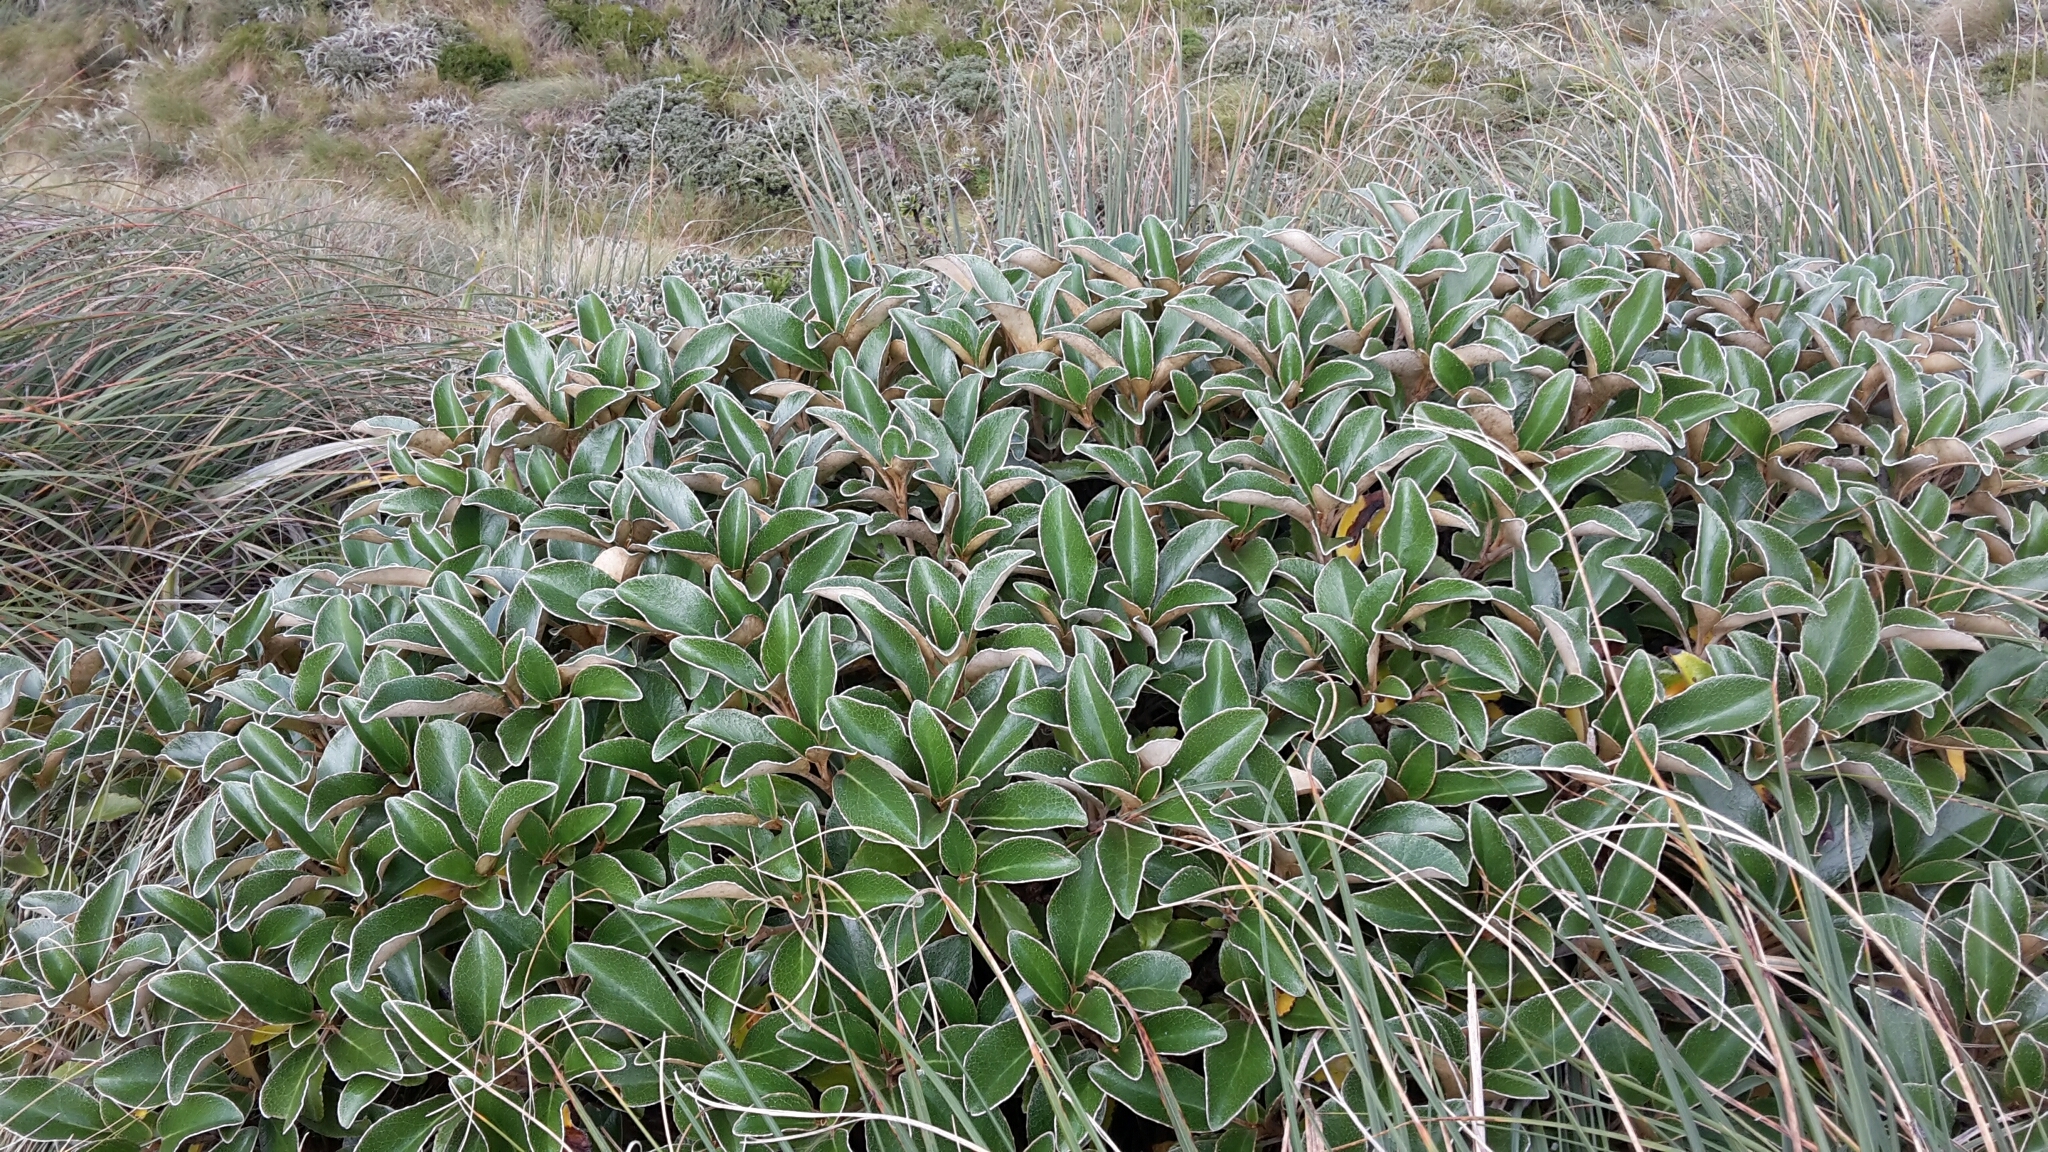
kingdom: Plantae
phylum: Tracheophyta
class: Magnoliopsida
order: Asterales
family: Asteraceae
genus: Brachyglottis
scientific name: Brachyglottis elaeagnifolia
